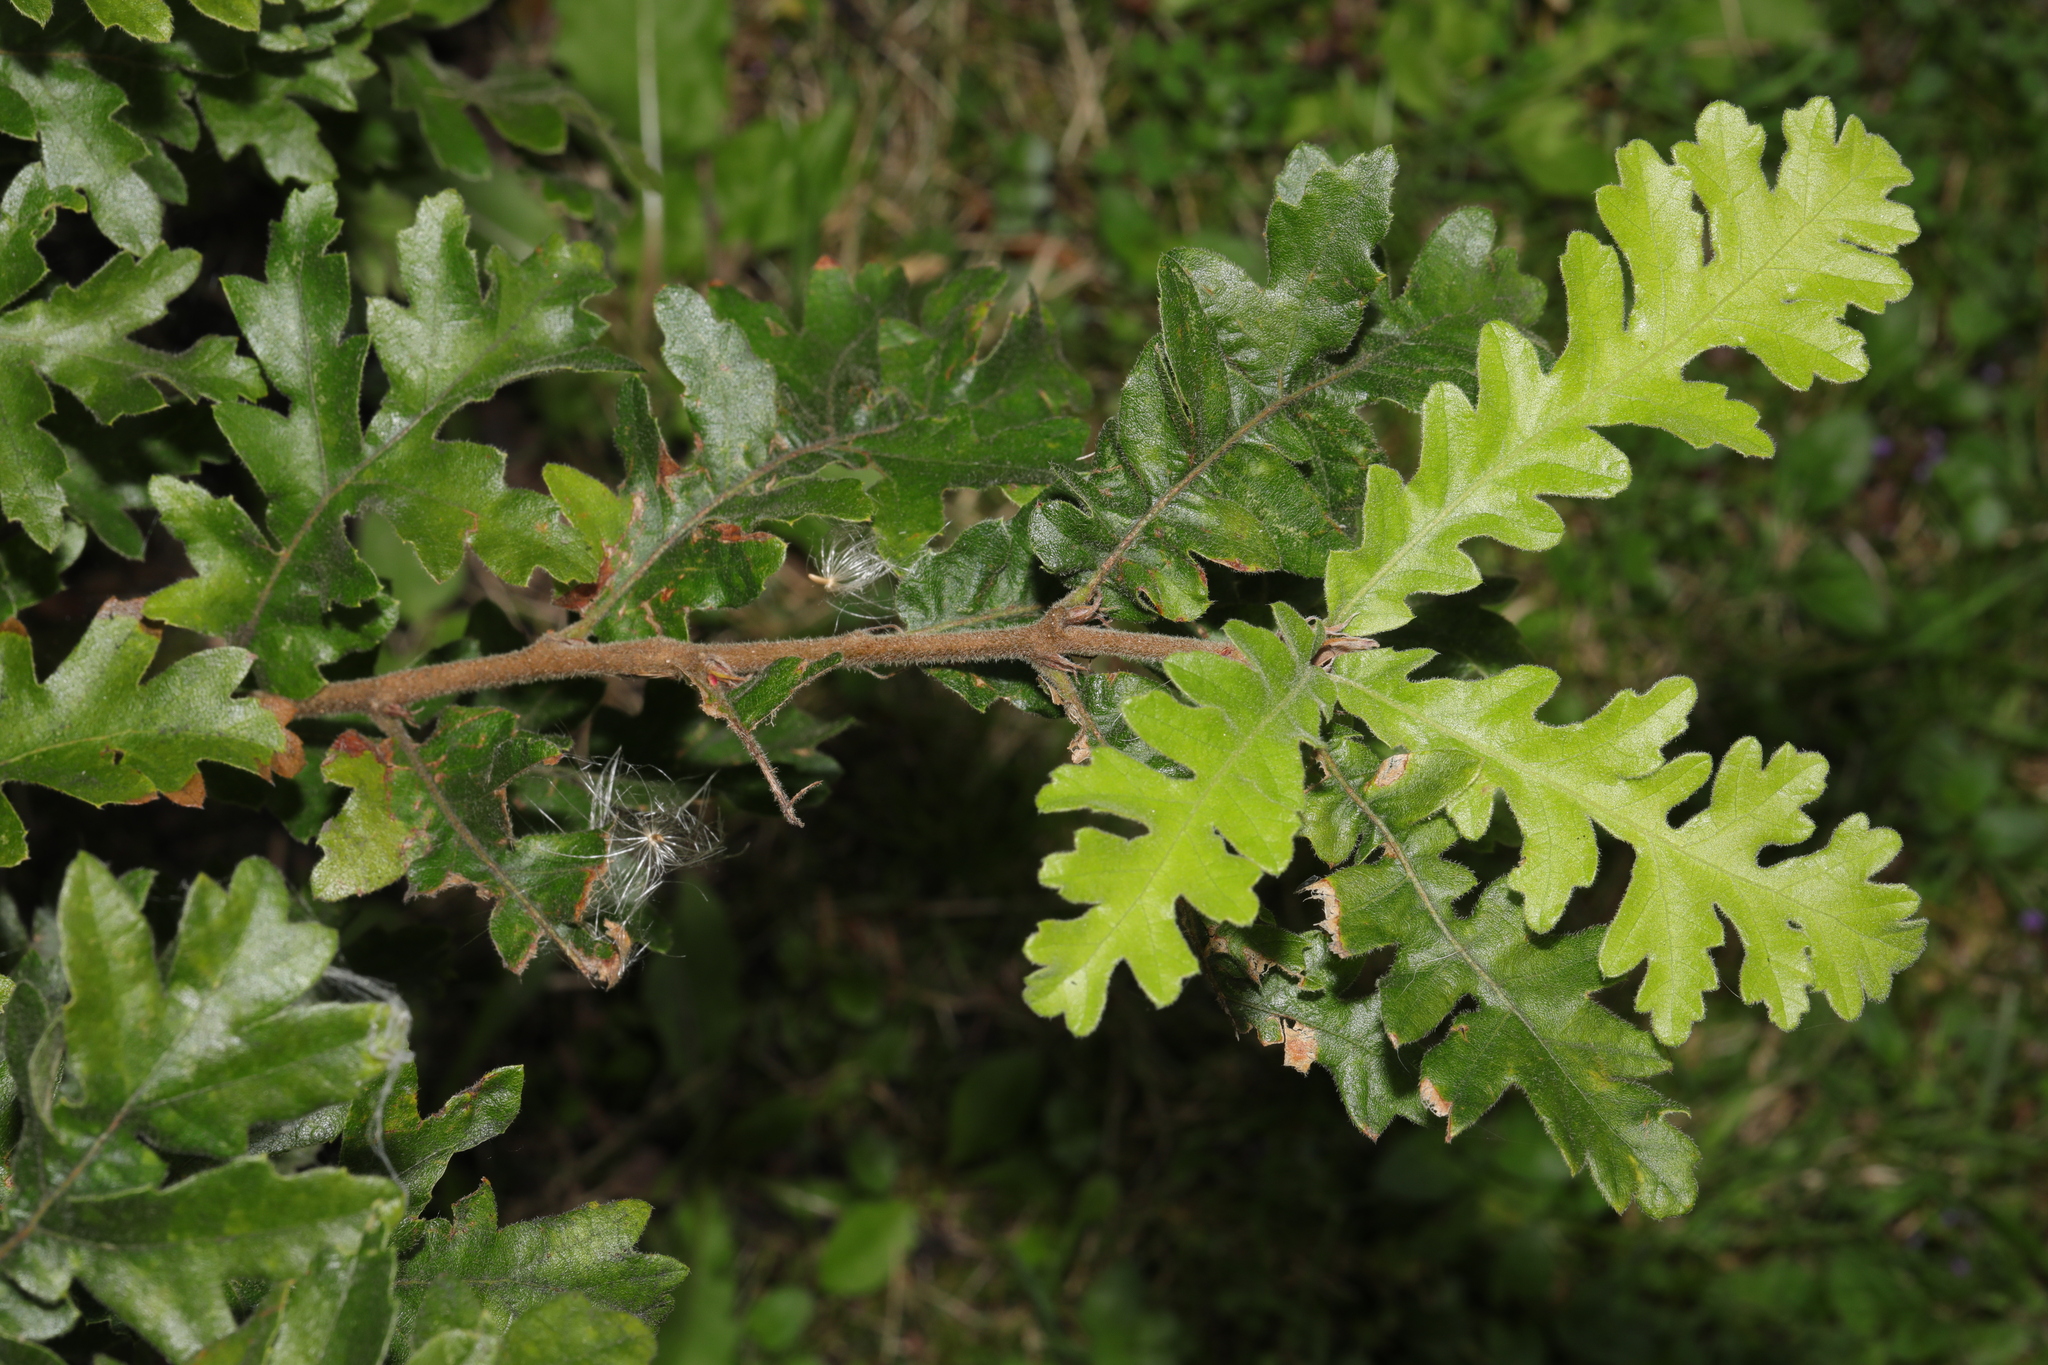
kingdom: Plantae
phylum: Tracheophyta
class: Magnoliopsida
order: Fagales
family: Fagaceae
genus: Quercus
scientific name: Quercus cerris
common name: Turkey oak
